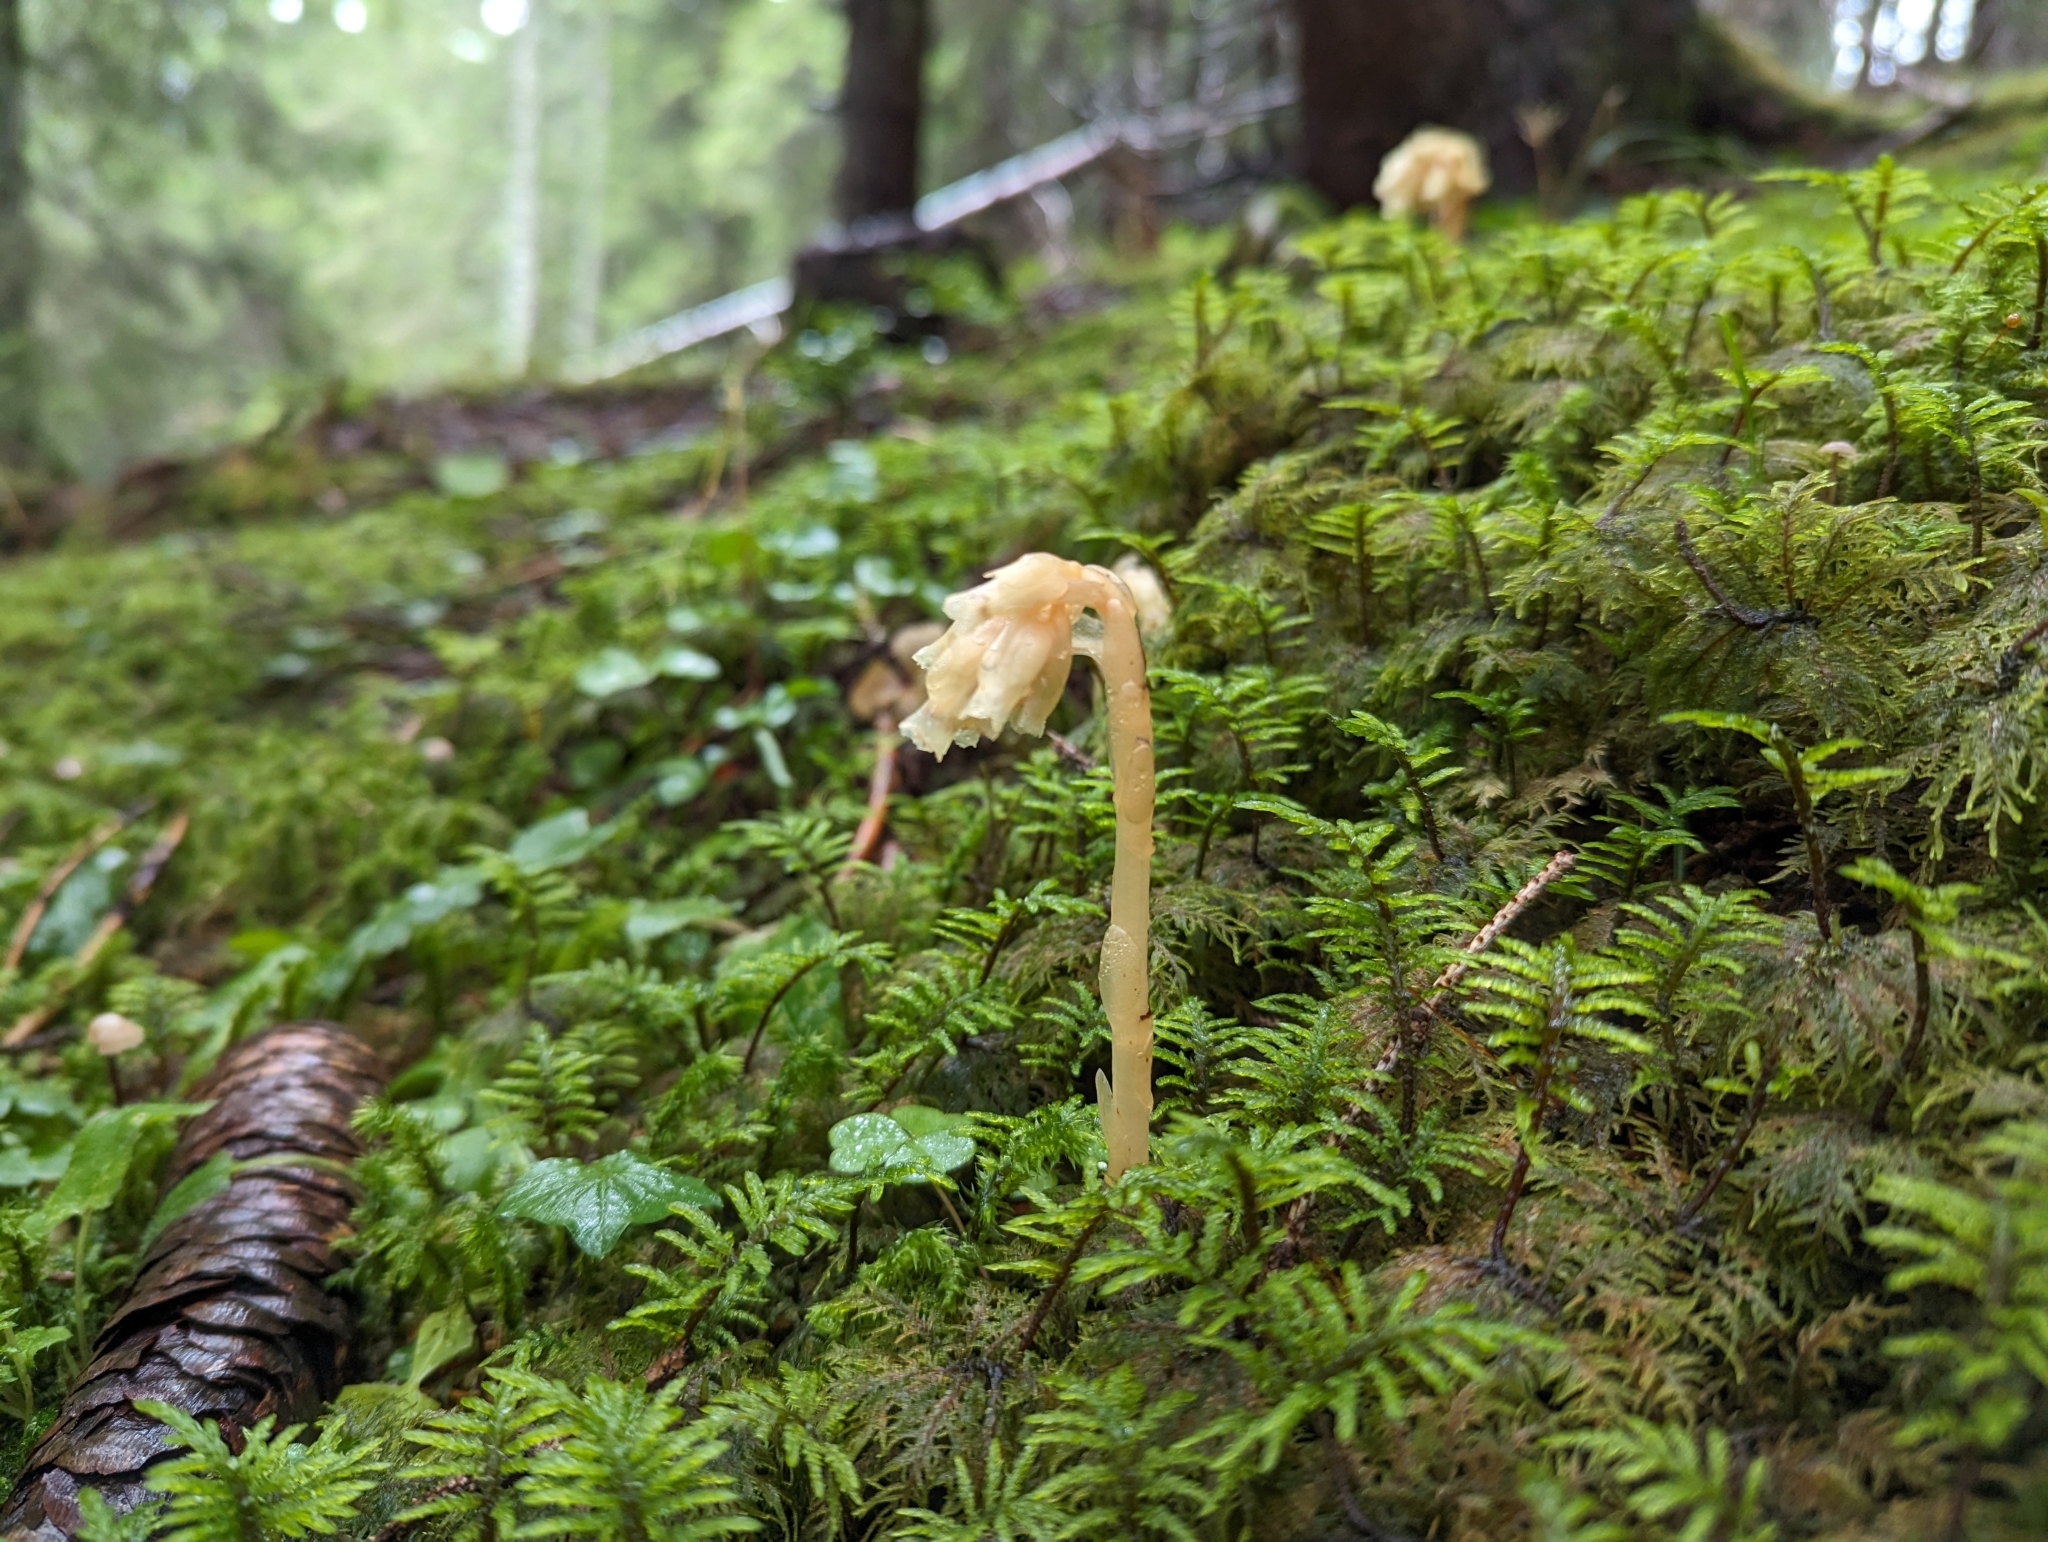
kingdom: Plantae
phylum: Tracheophyta
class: Magnoliopsida
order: Ericales
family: Ericaceae
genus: Hypopitys
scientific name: Hypopitys monotropa
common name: Yellow bird's-nest
